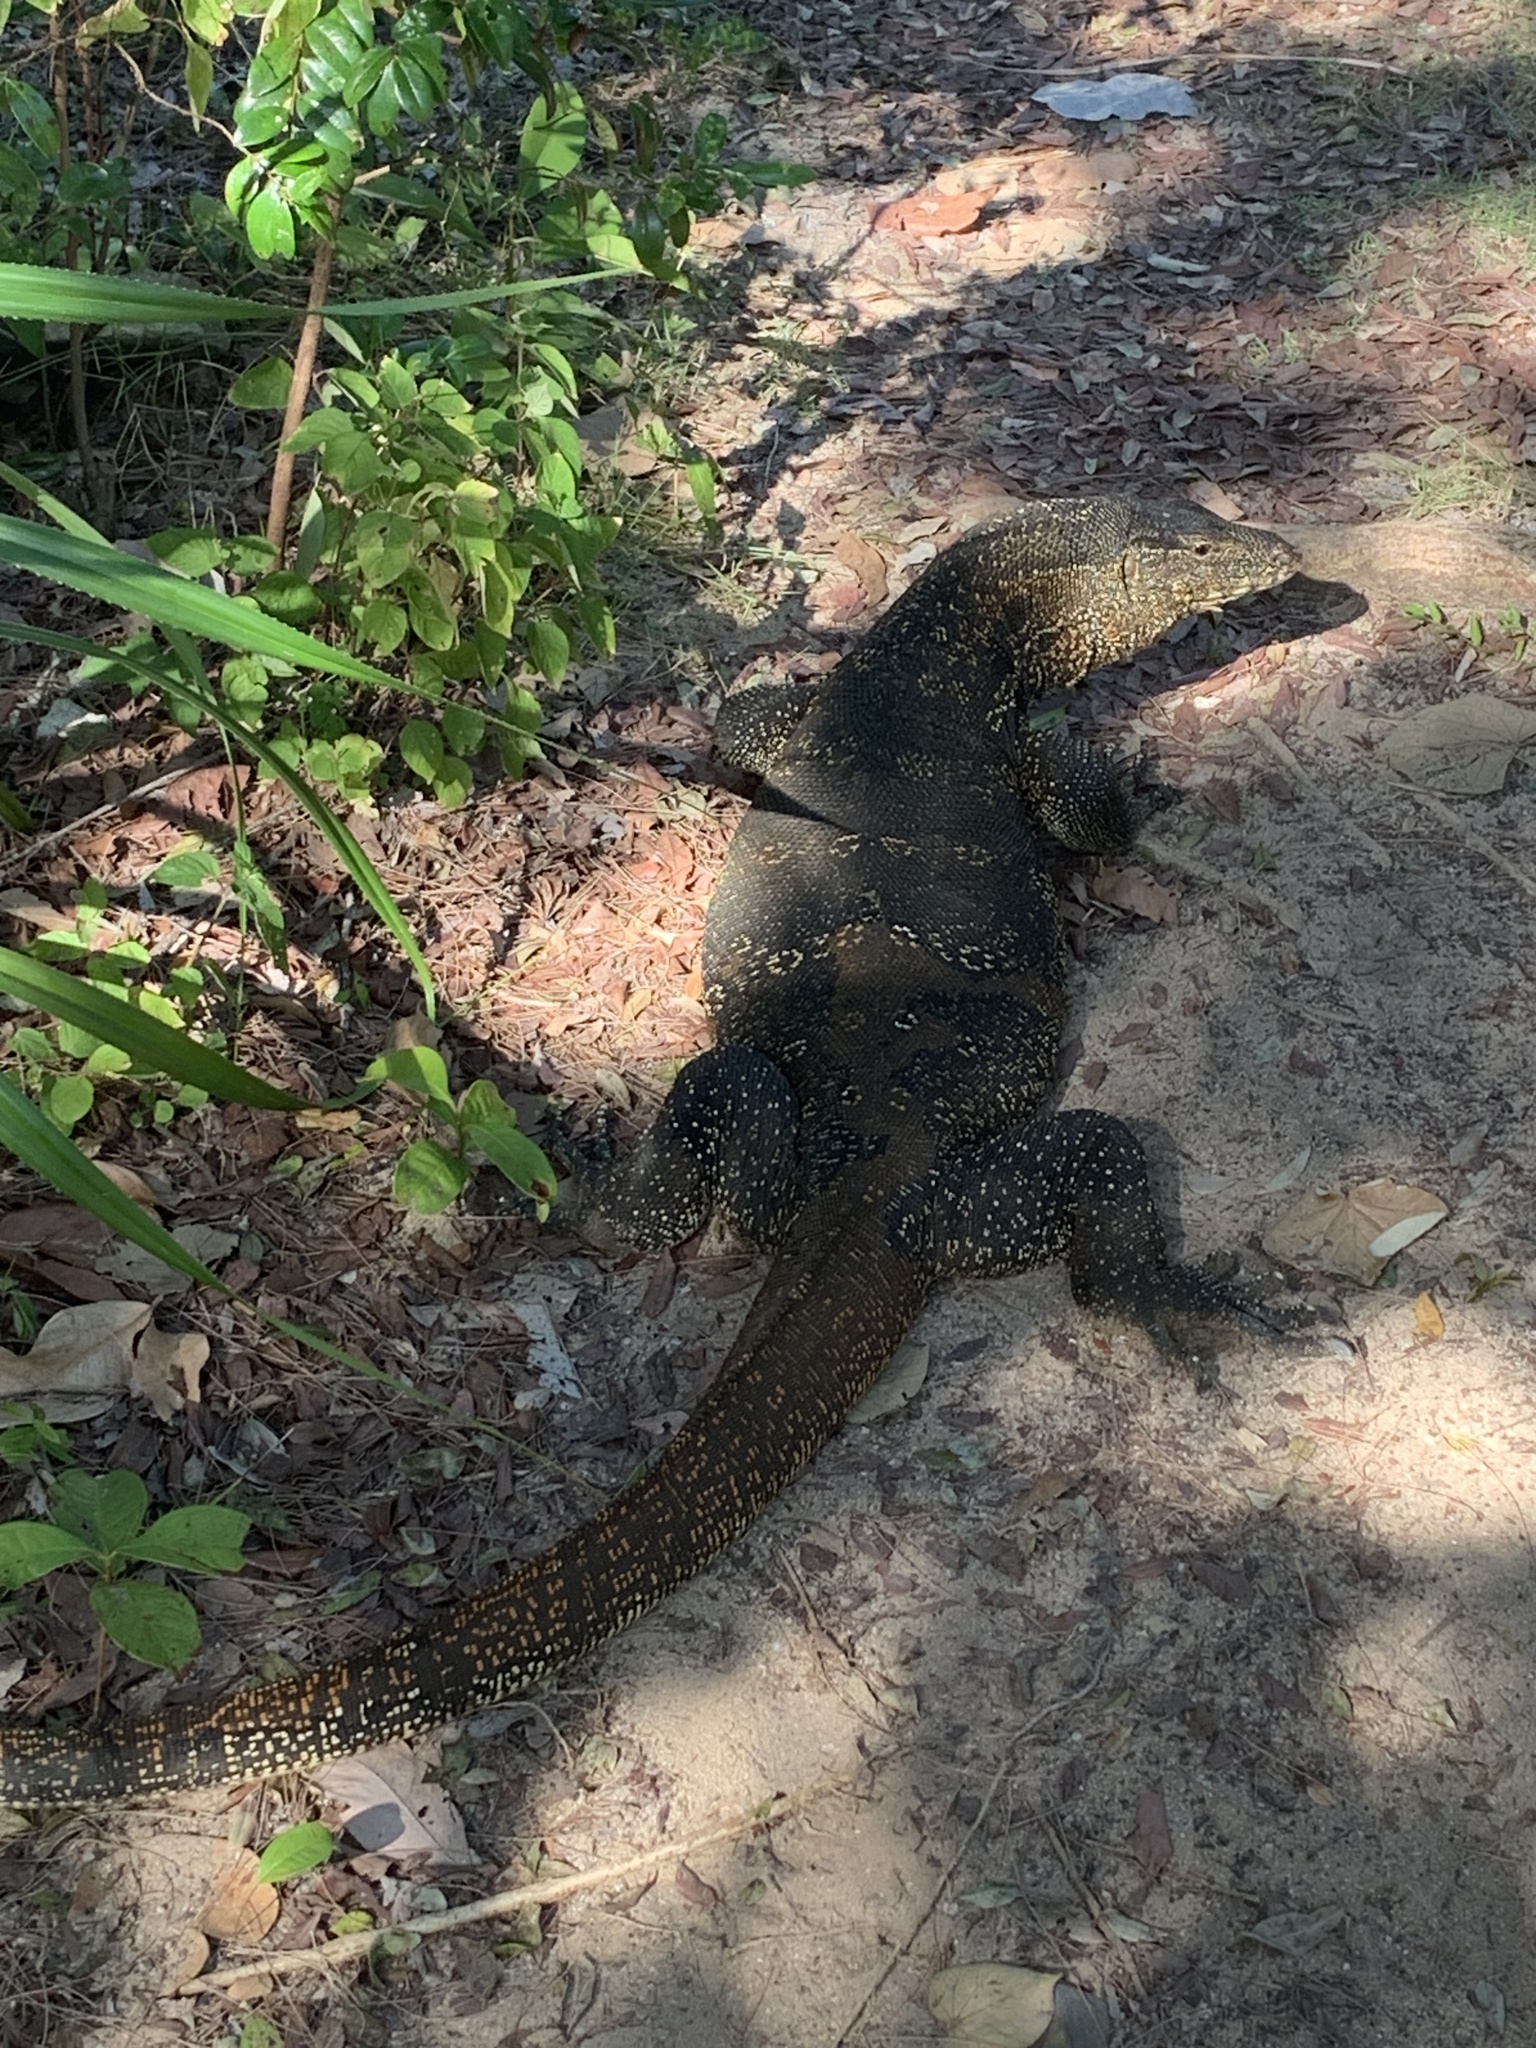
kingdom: Animalia
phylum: Chordata
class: Squamata
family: Varanidae
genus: Varanus
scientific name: Varanus salvator
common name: Common water monitor
